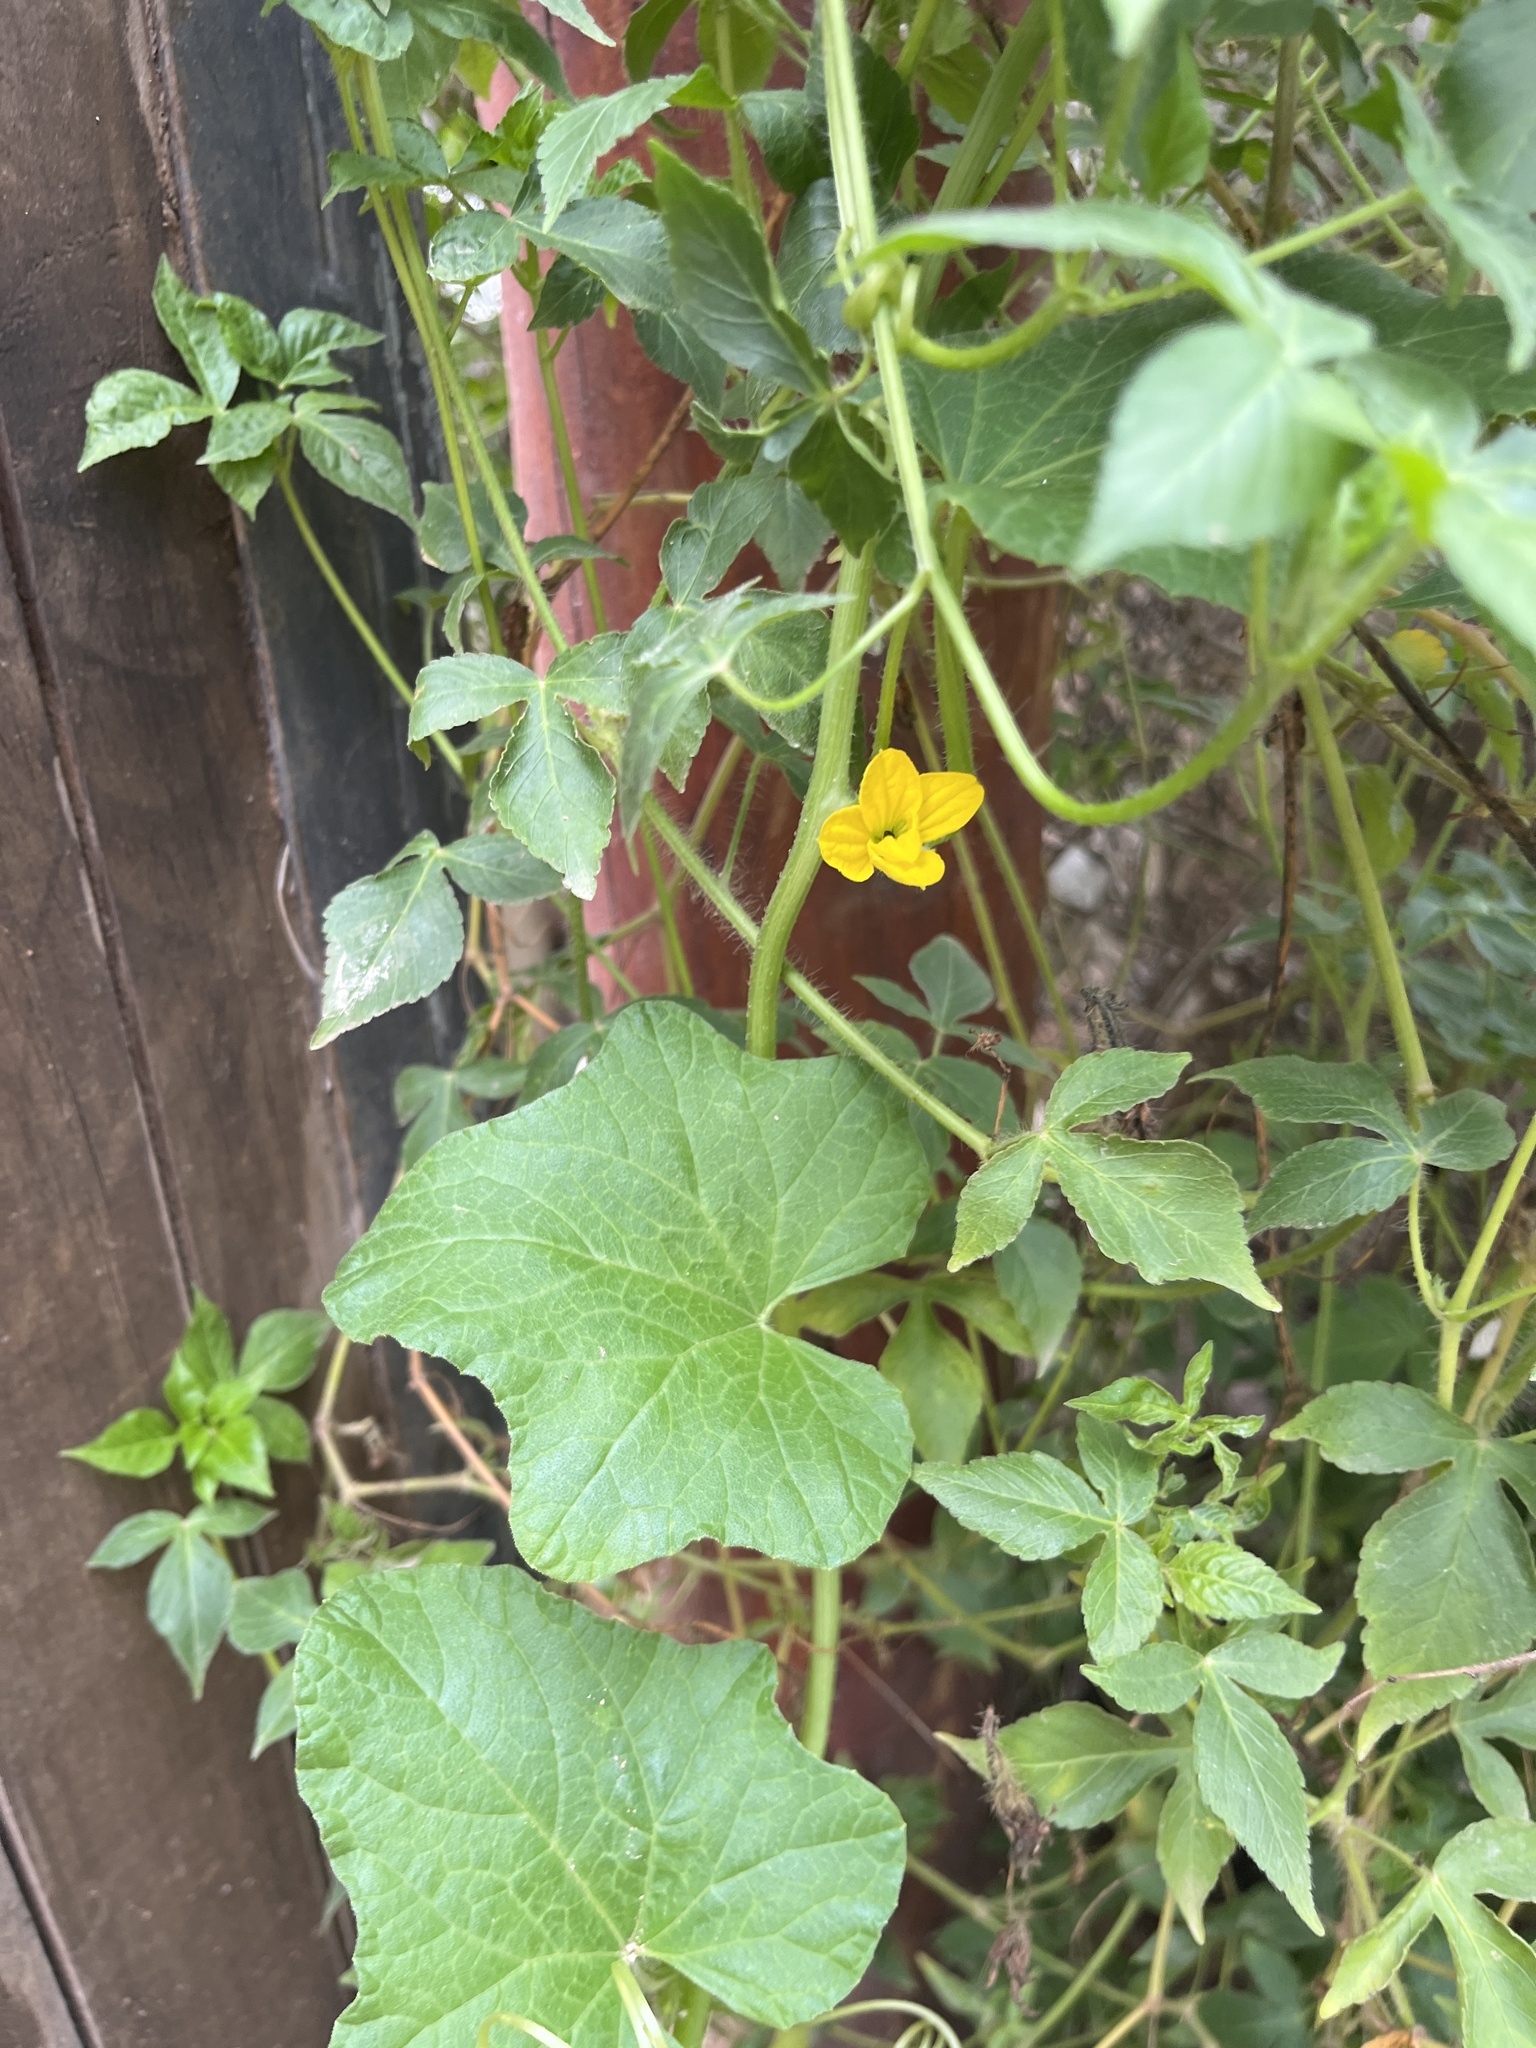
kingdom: Plantae
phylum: Tracheophyta
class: Magnoliopsida
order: Cucurbitales
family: Cucurbitaceae
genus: Cucumis
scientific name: Cucumis melo
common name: Melon
